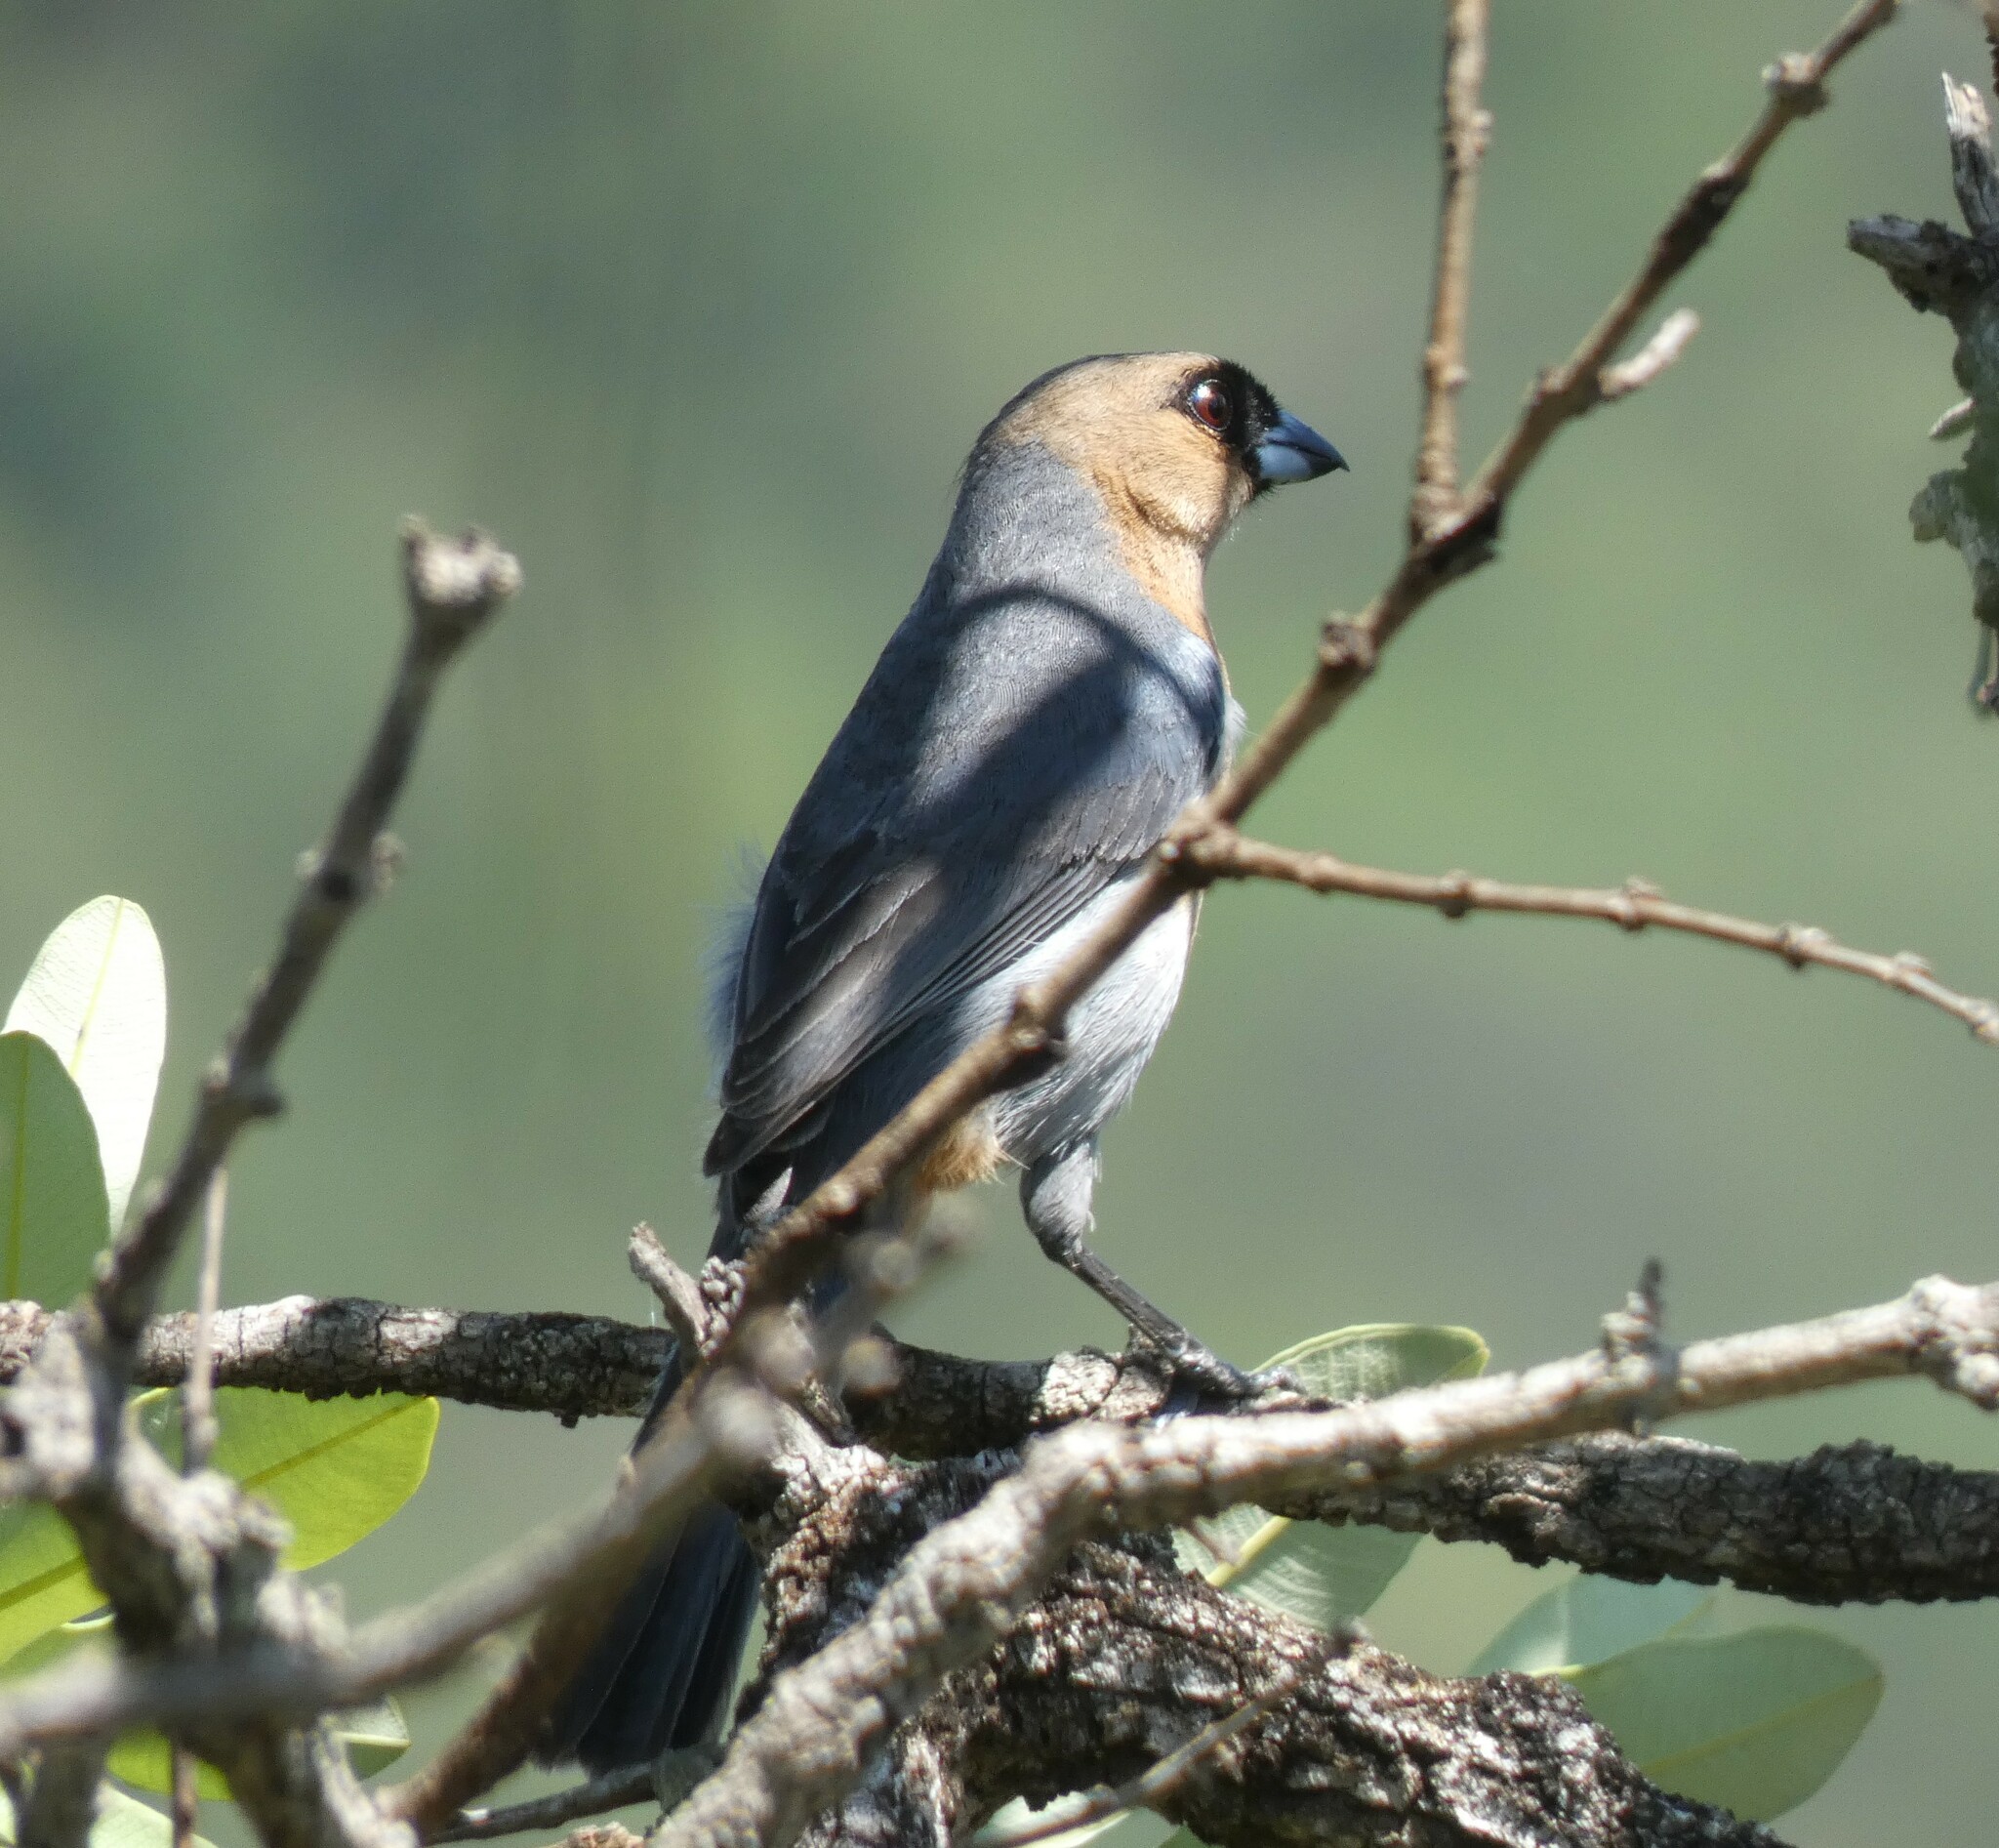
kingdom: Animalia
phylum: Chordata
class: Aves
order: Passeriformes
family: Thraupidae
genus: Schistochlamys
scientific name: Schistochlamys ruficapillus
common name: Cinnamon tanager
